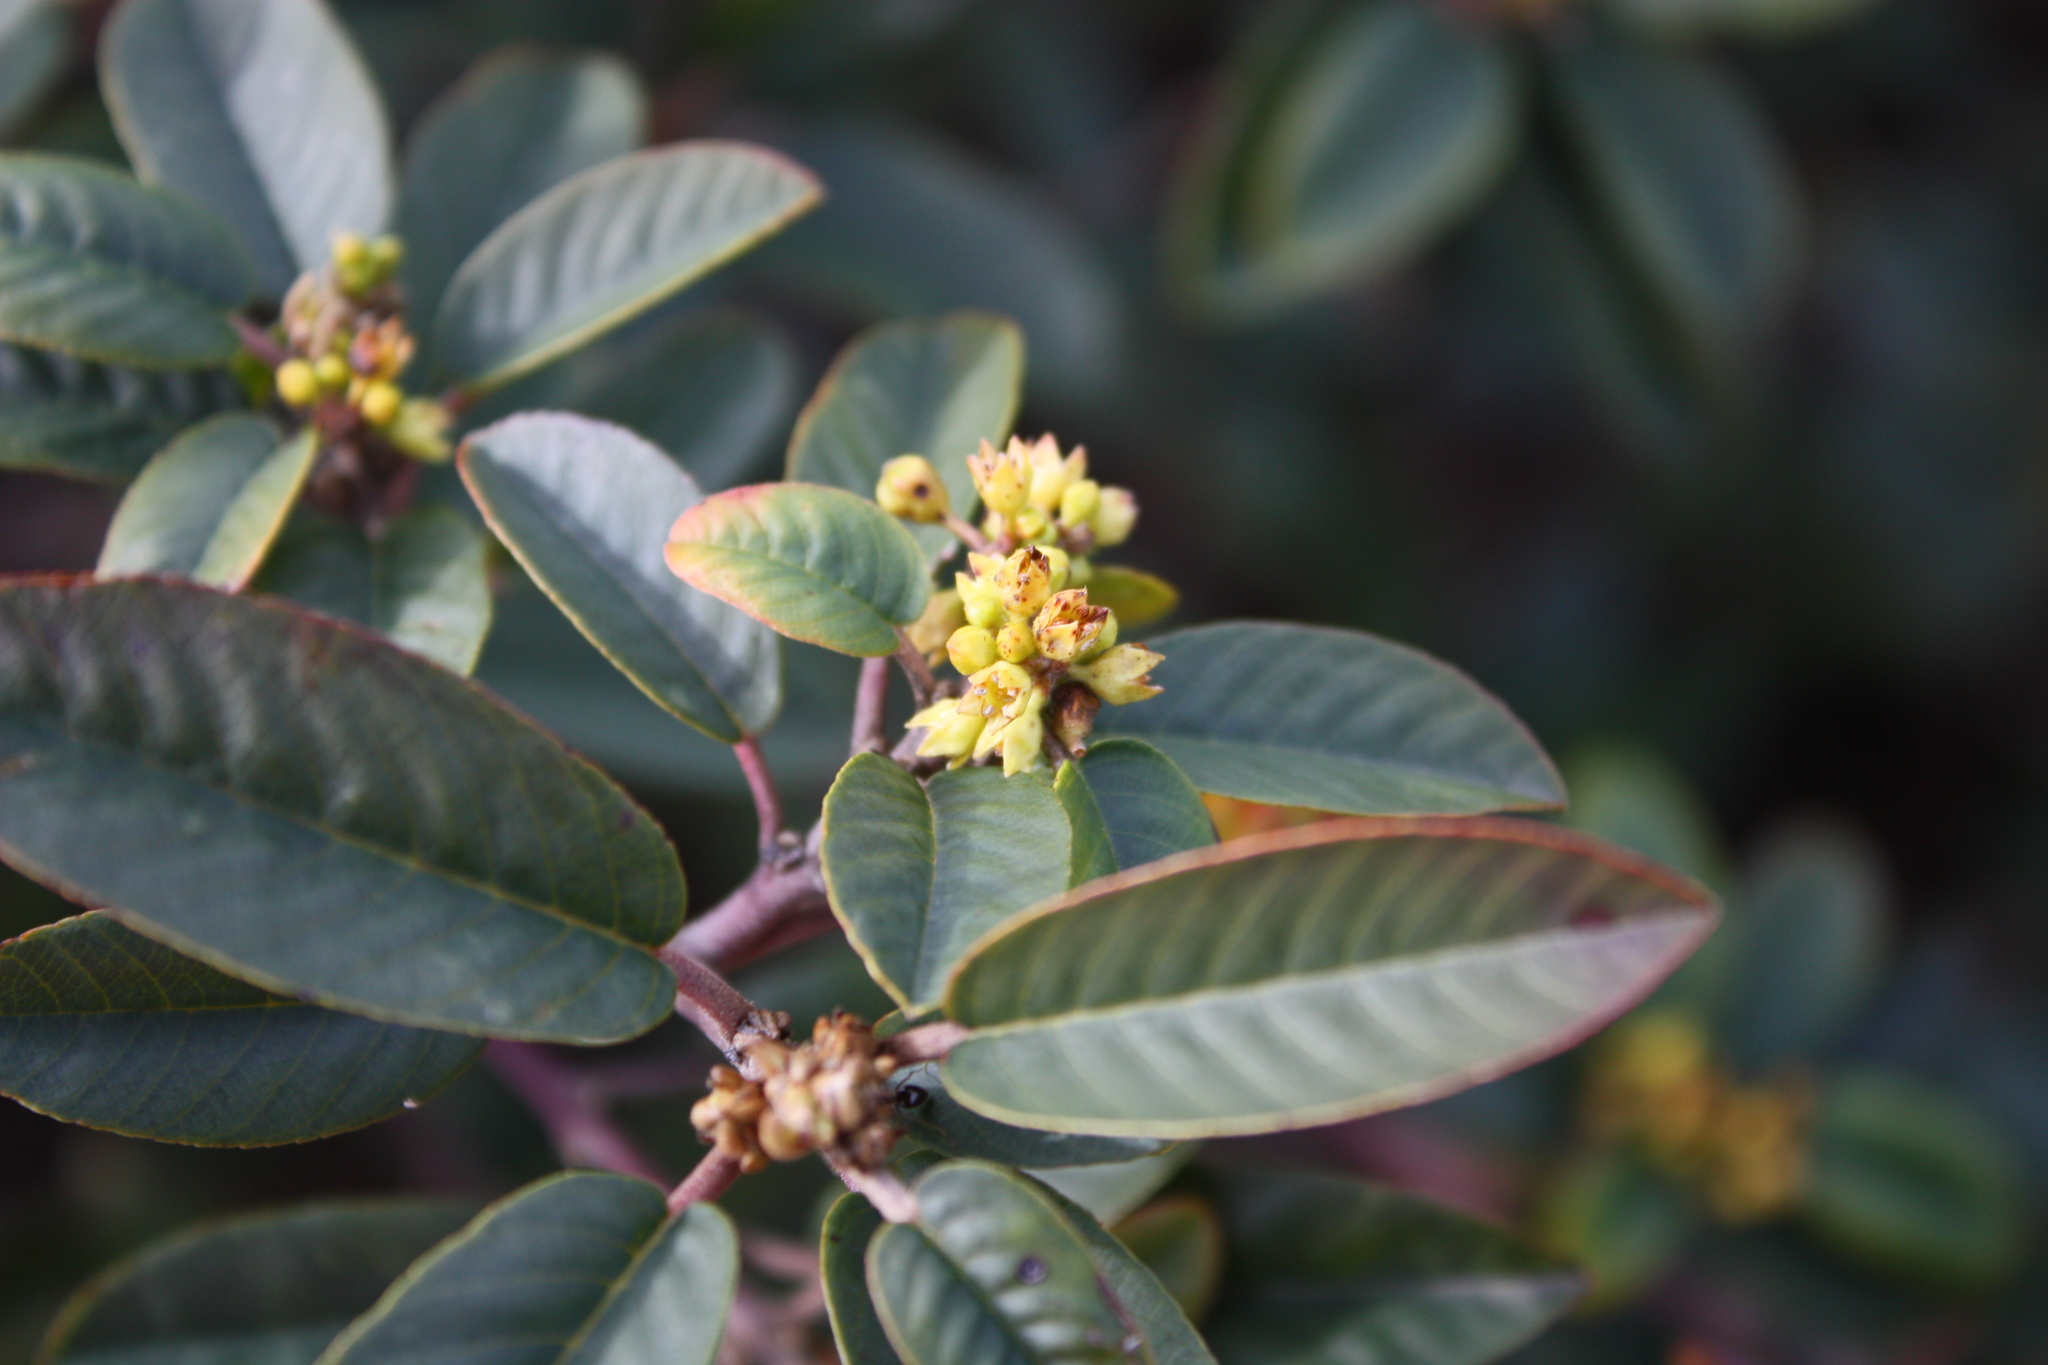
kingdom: Plantae
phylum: Tracheophyta
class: Magnoliopsida
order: Rosales
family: Rhamnaceae
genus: Frangula
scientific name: Frangula californica
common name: California buckthorn
